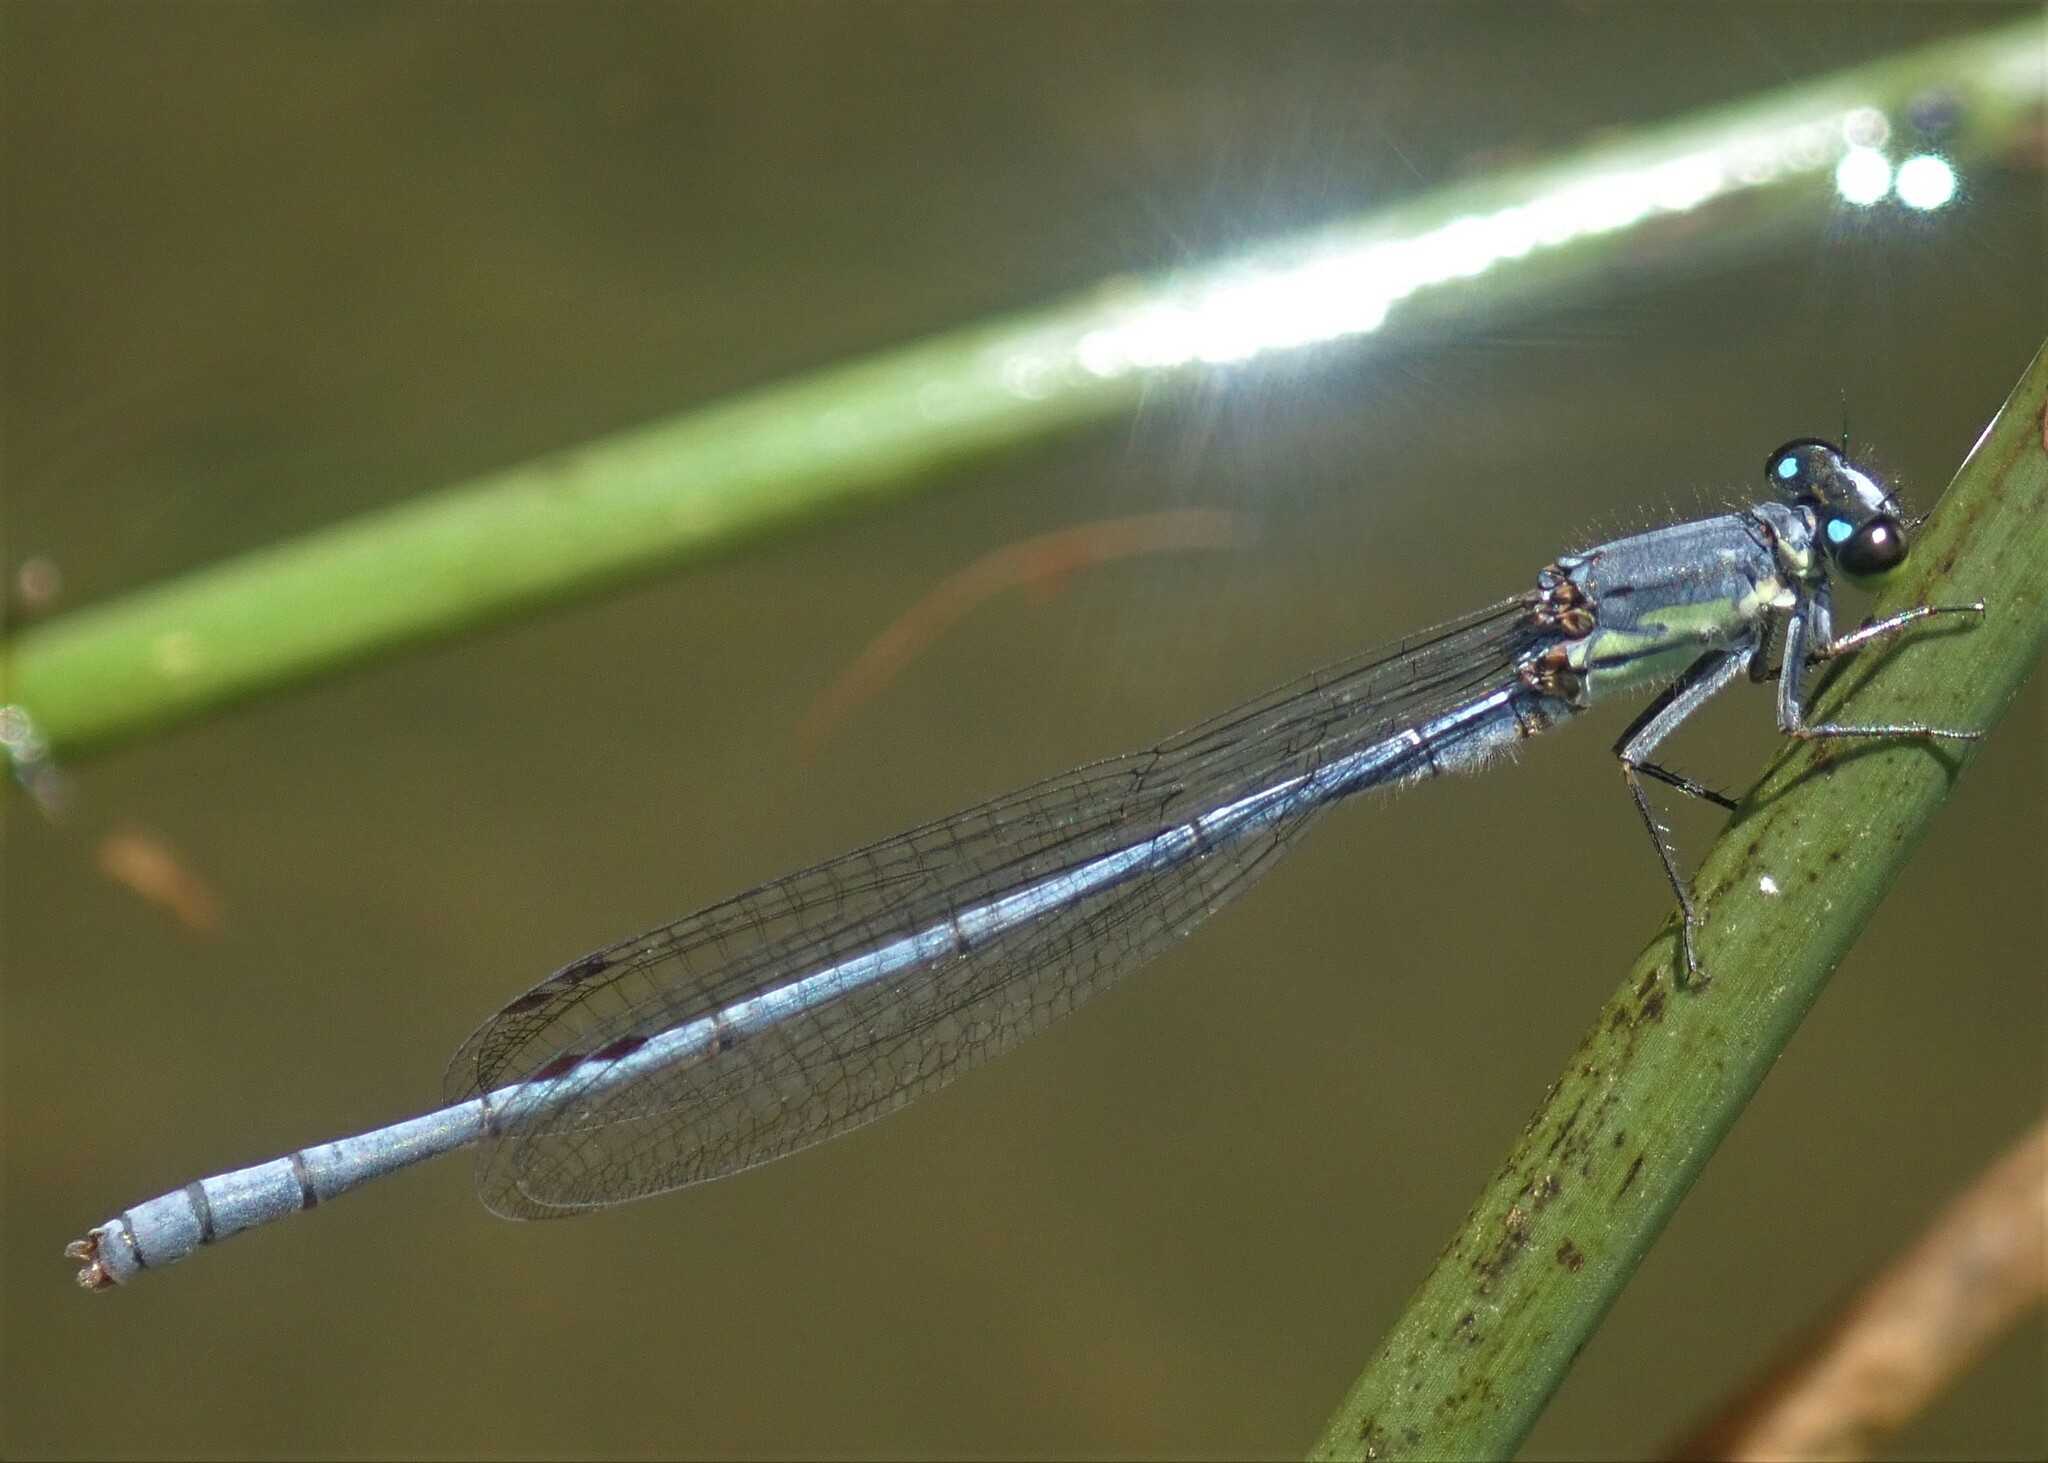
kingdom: Animalia
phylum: Arthropoda
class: Insecta
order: Odonata
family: Coenagrionidae
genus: Pseudagrion
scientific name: Pseudagrion spernatum
